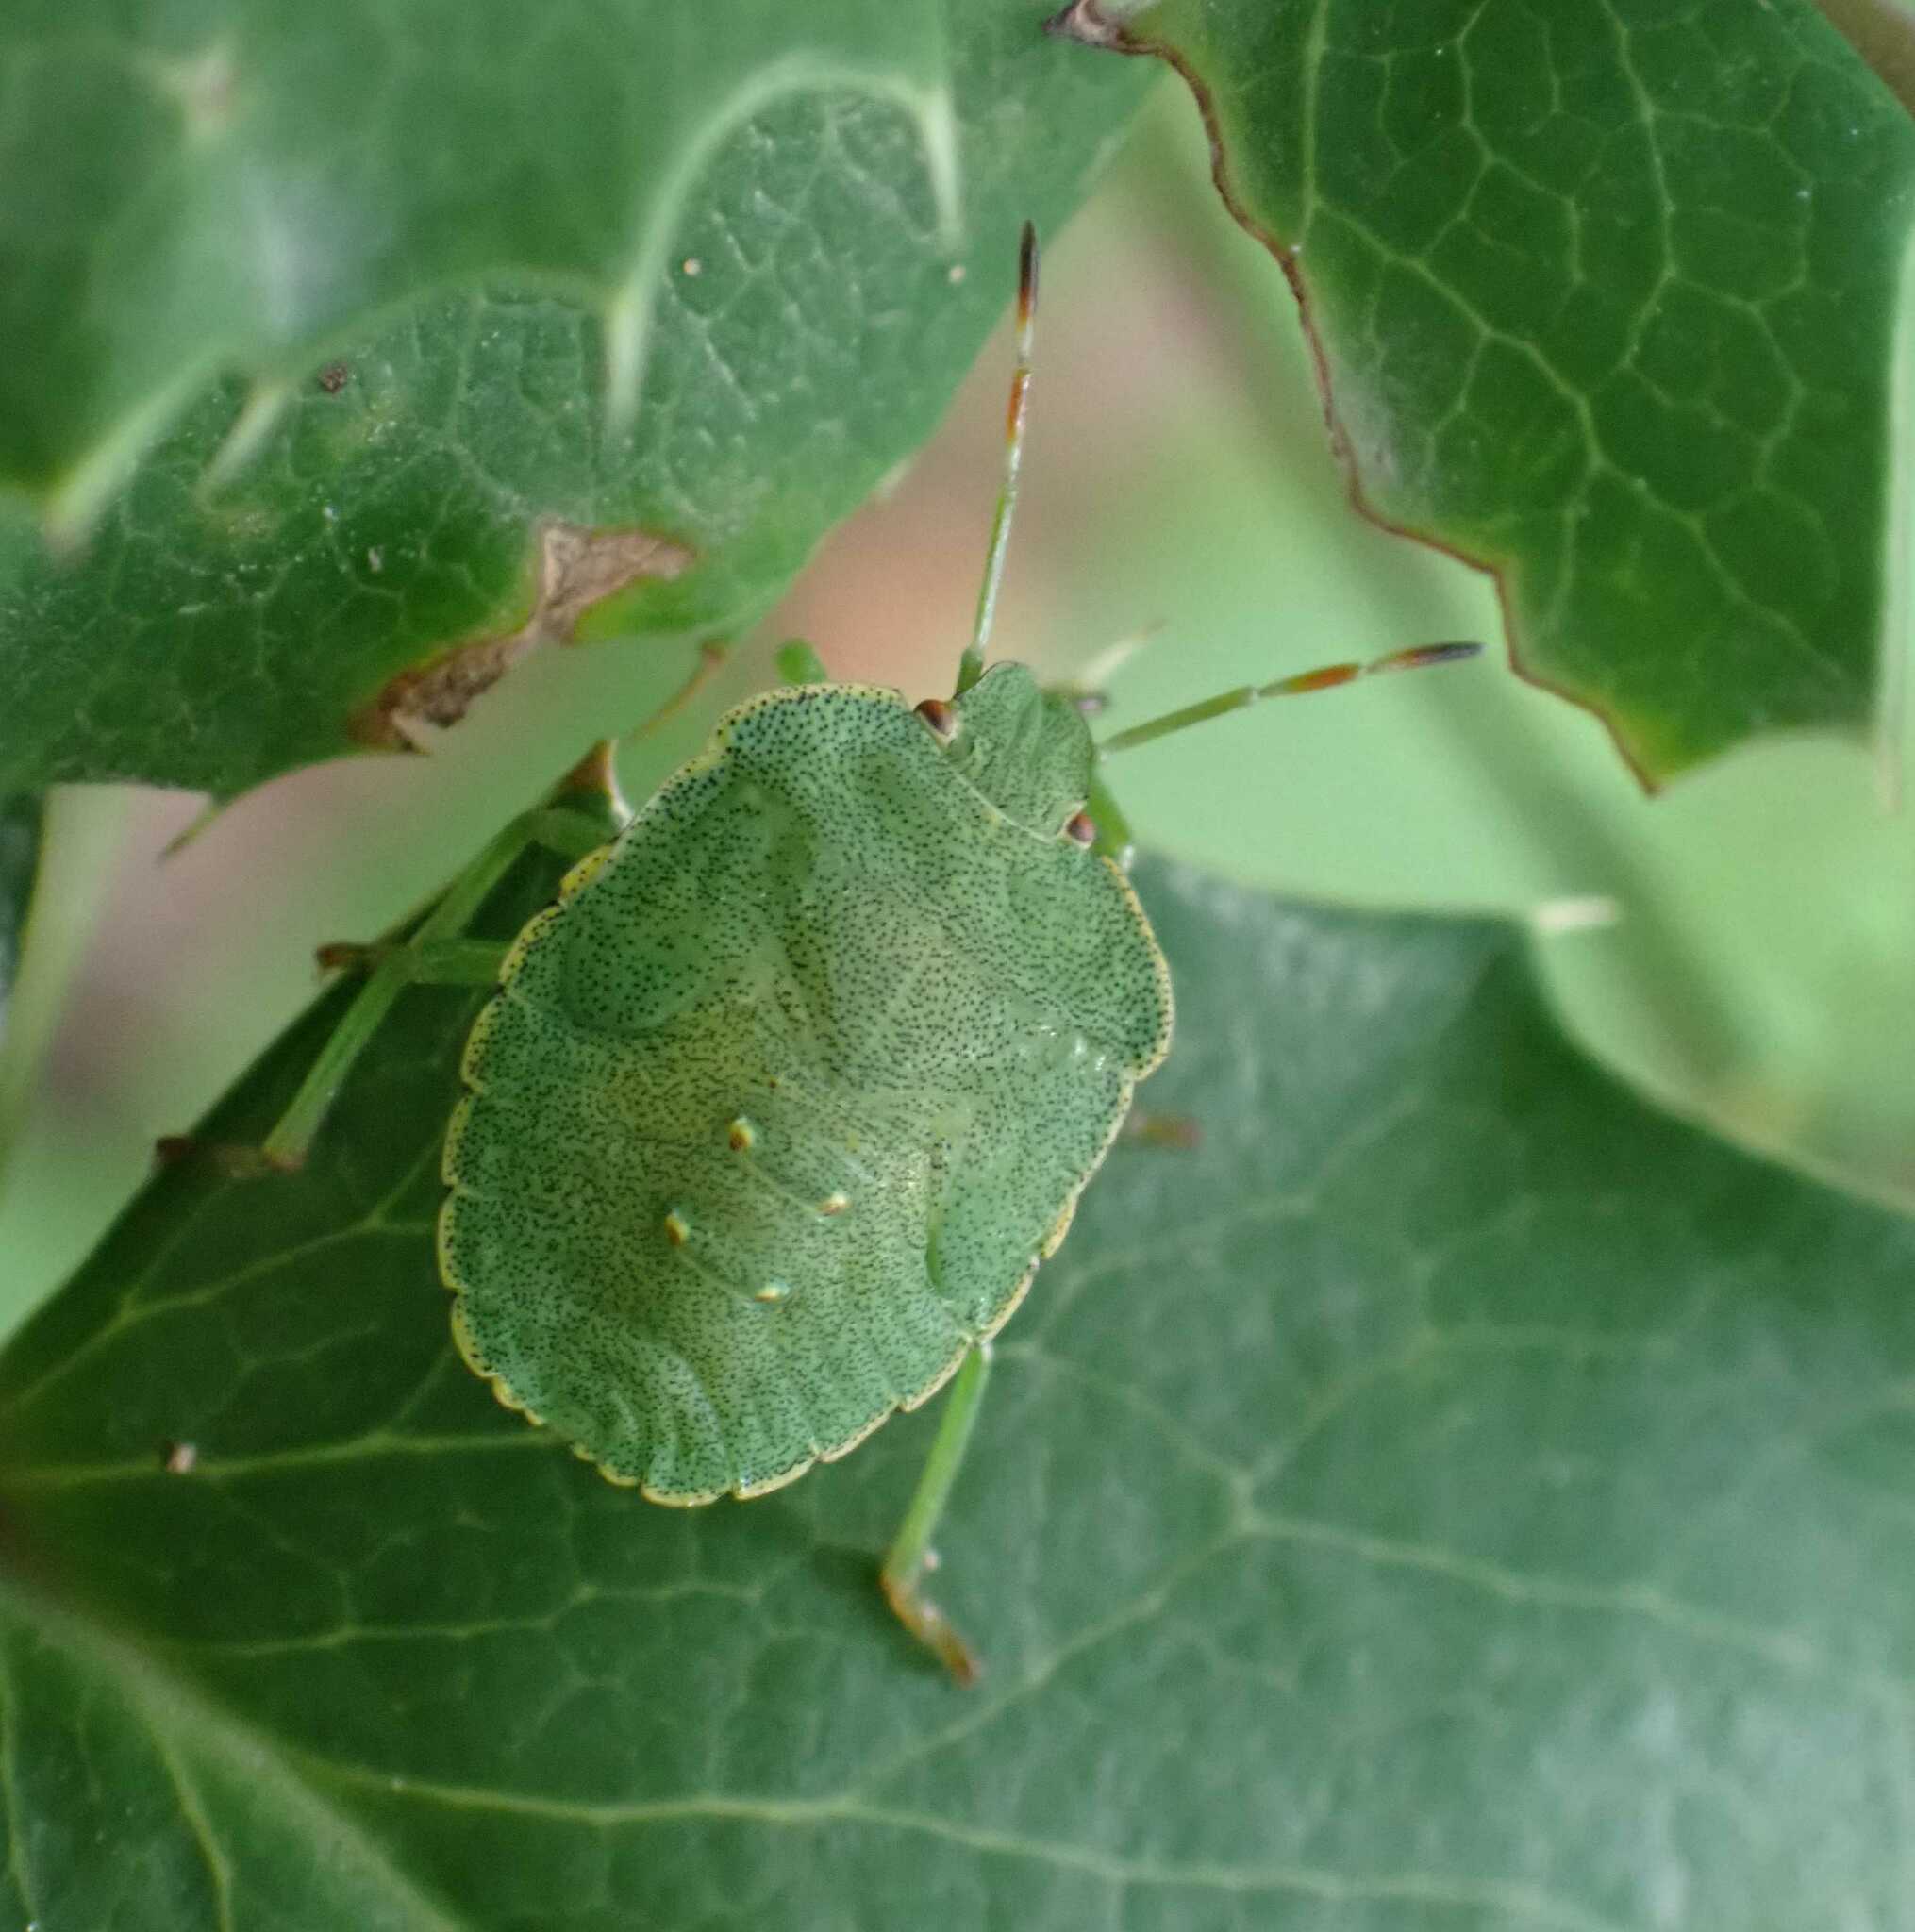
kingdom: Animalia
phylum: Arthropoda
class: Insecta
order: Hemiptera
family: Pentatomidae
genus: Palomena
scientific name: Palomena prasina
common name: Green shieldbug
